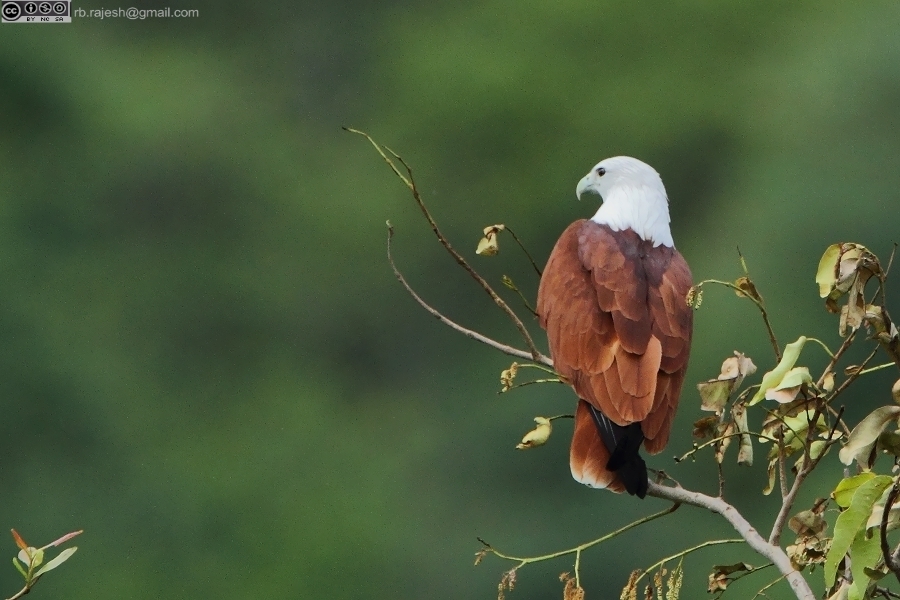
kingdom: Animalia
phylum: Chordata
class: Aves
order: Accipitriformes
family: Accipitridae
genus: Haliastur
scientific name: Haliastur indus
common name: Brahminy kite
